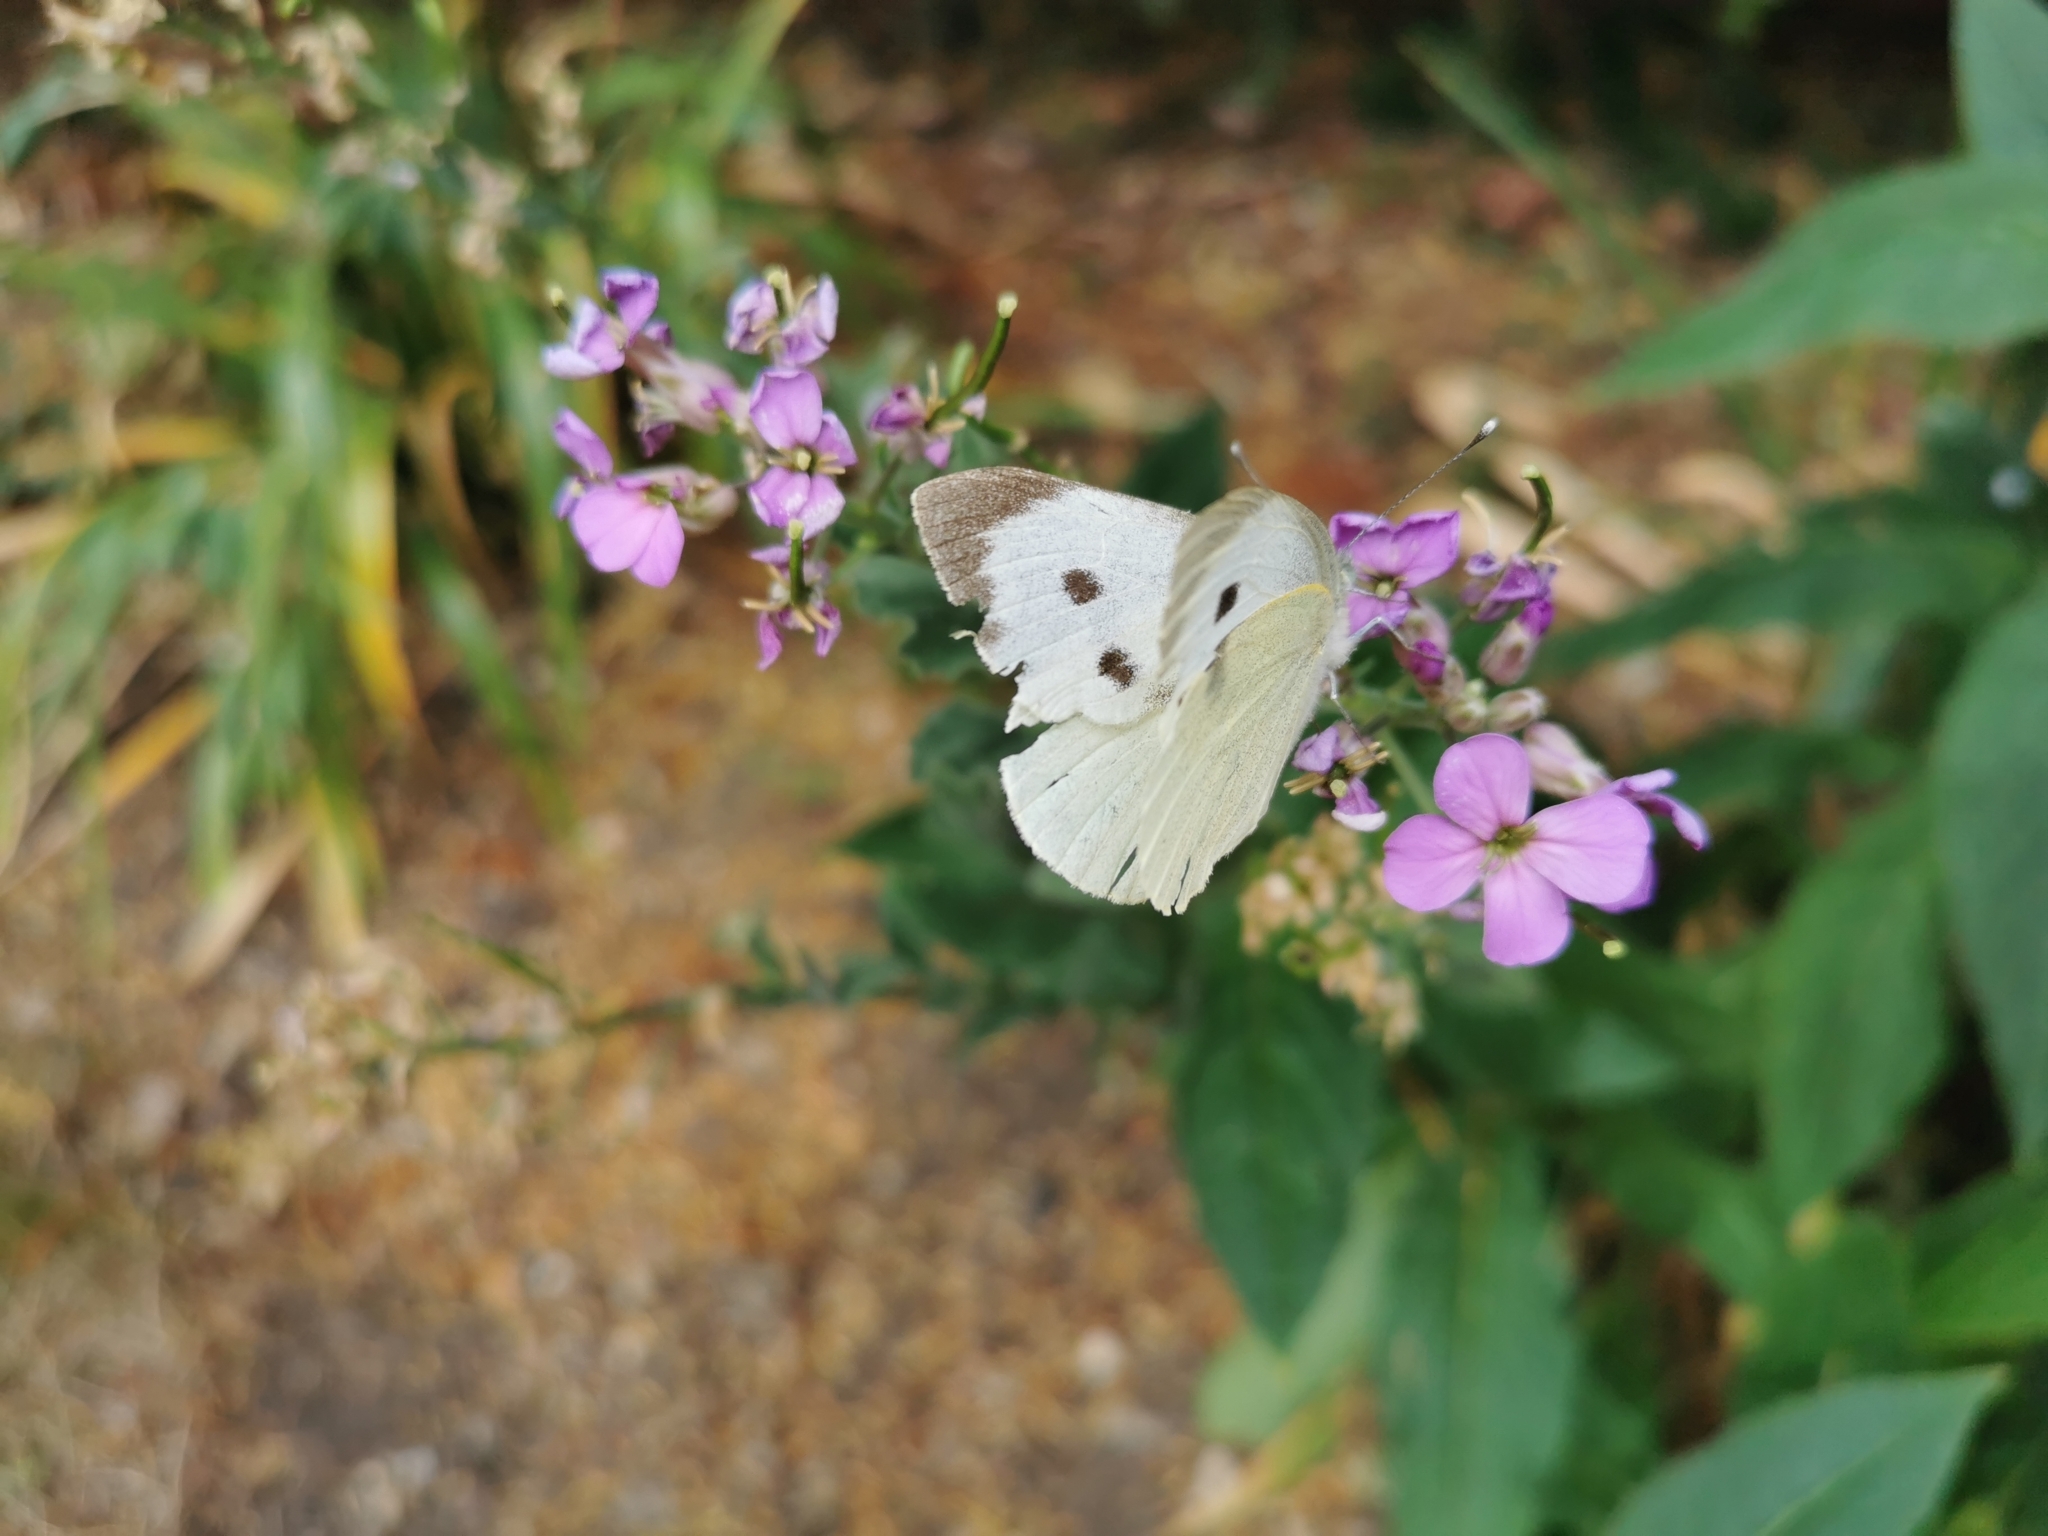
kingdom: Animalia
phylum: Arthropoda
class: Insecta
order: Lepidoptera
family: Pieridae
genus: Pieris
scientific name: Pieris brassicae
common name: Large white
